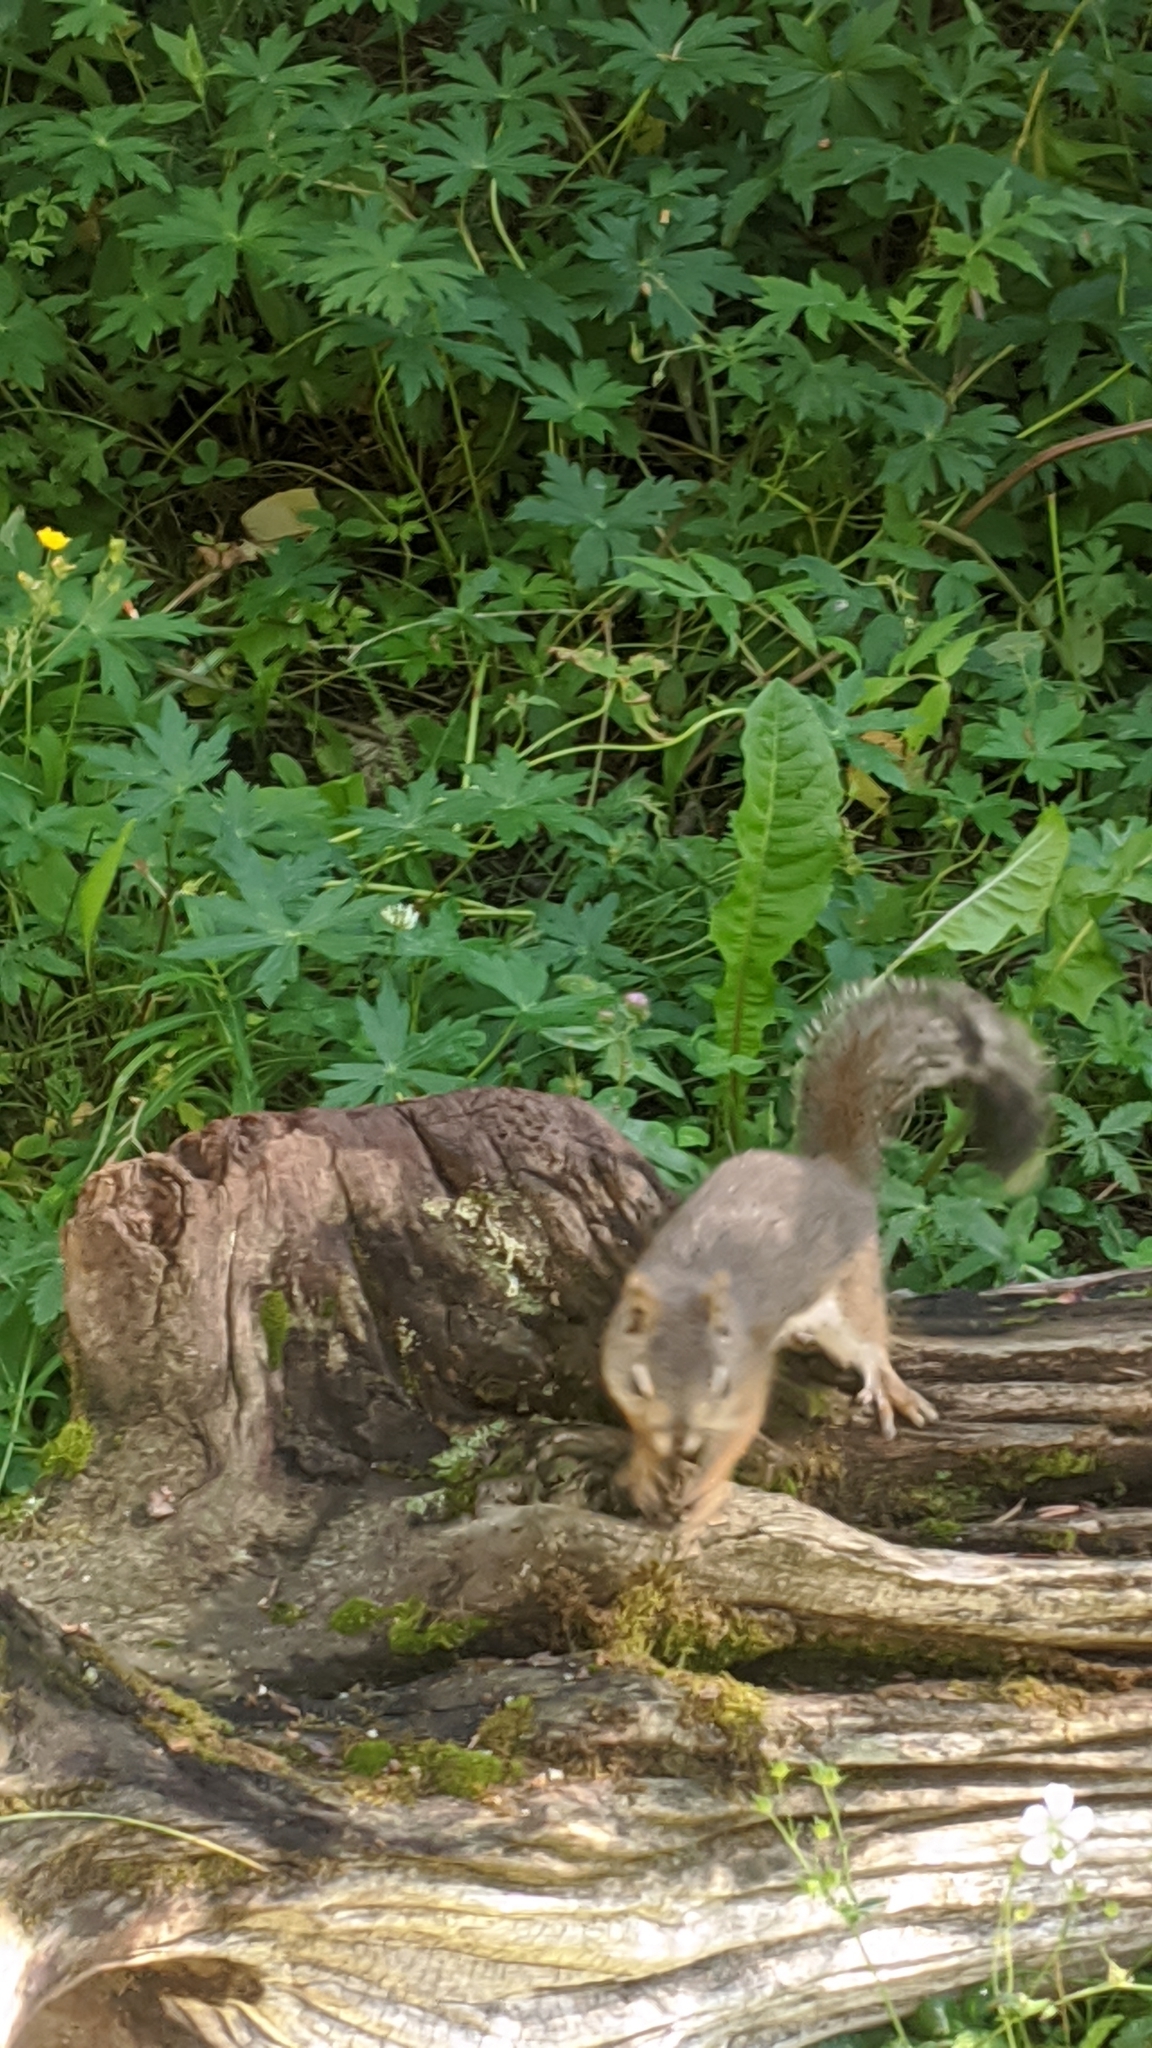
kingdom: Animalia
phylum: Chordata
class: Mammalia
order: Rodentia
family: Sciuridae
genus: Sciurus
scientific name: Sciurus niger
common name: Fox squirrel
